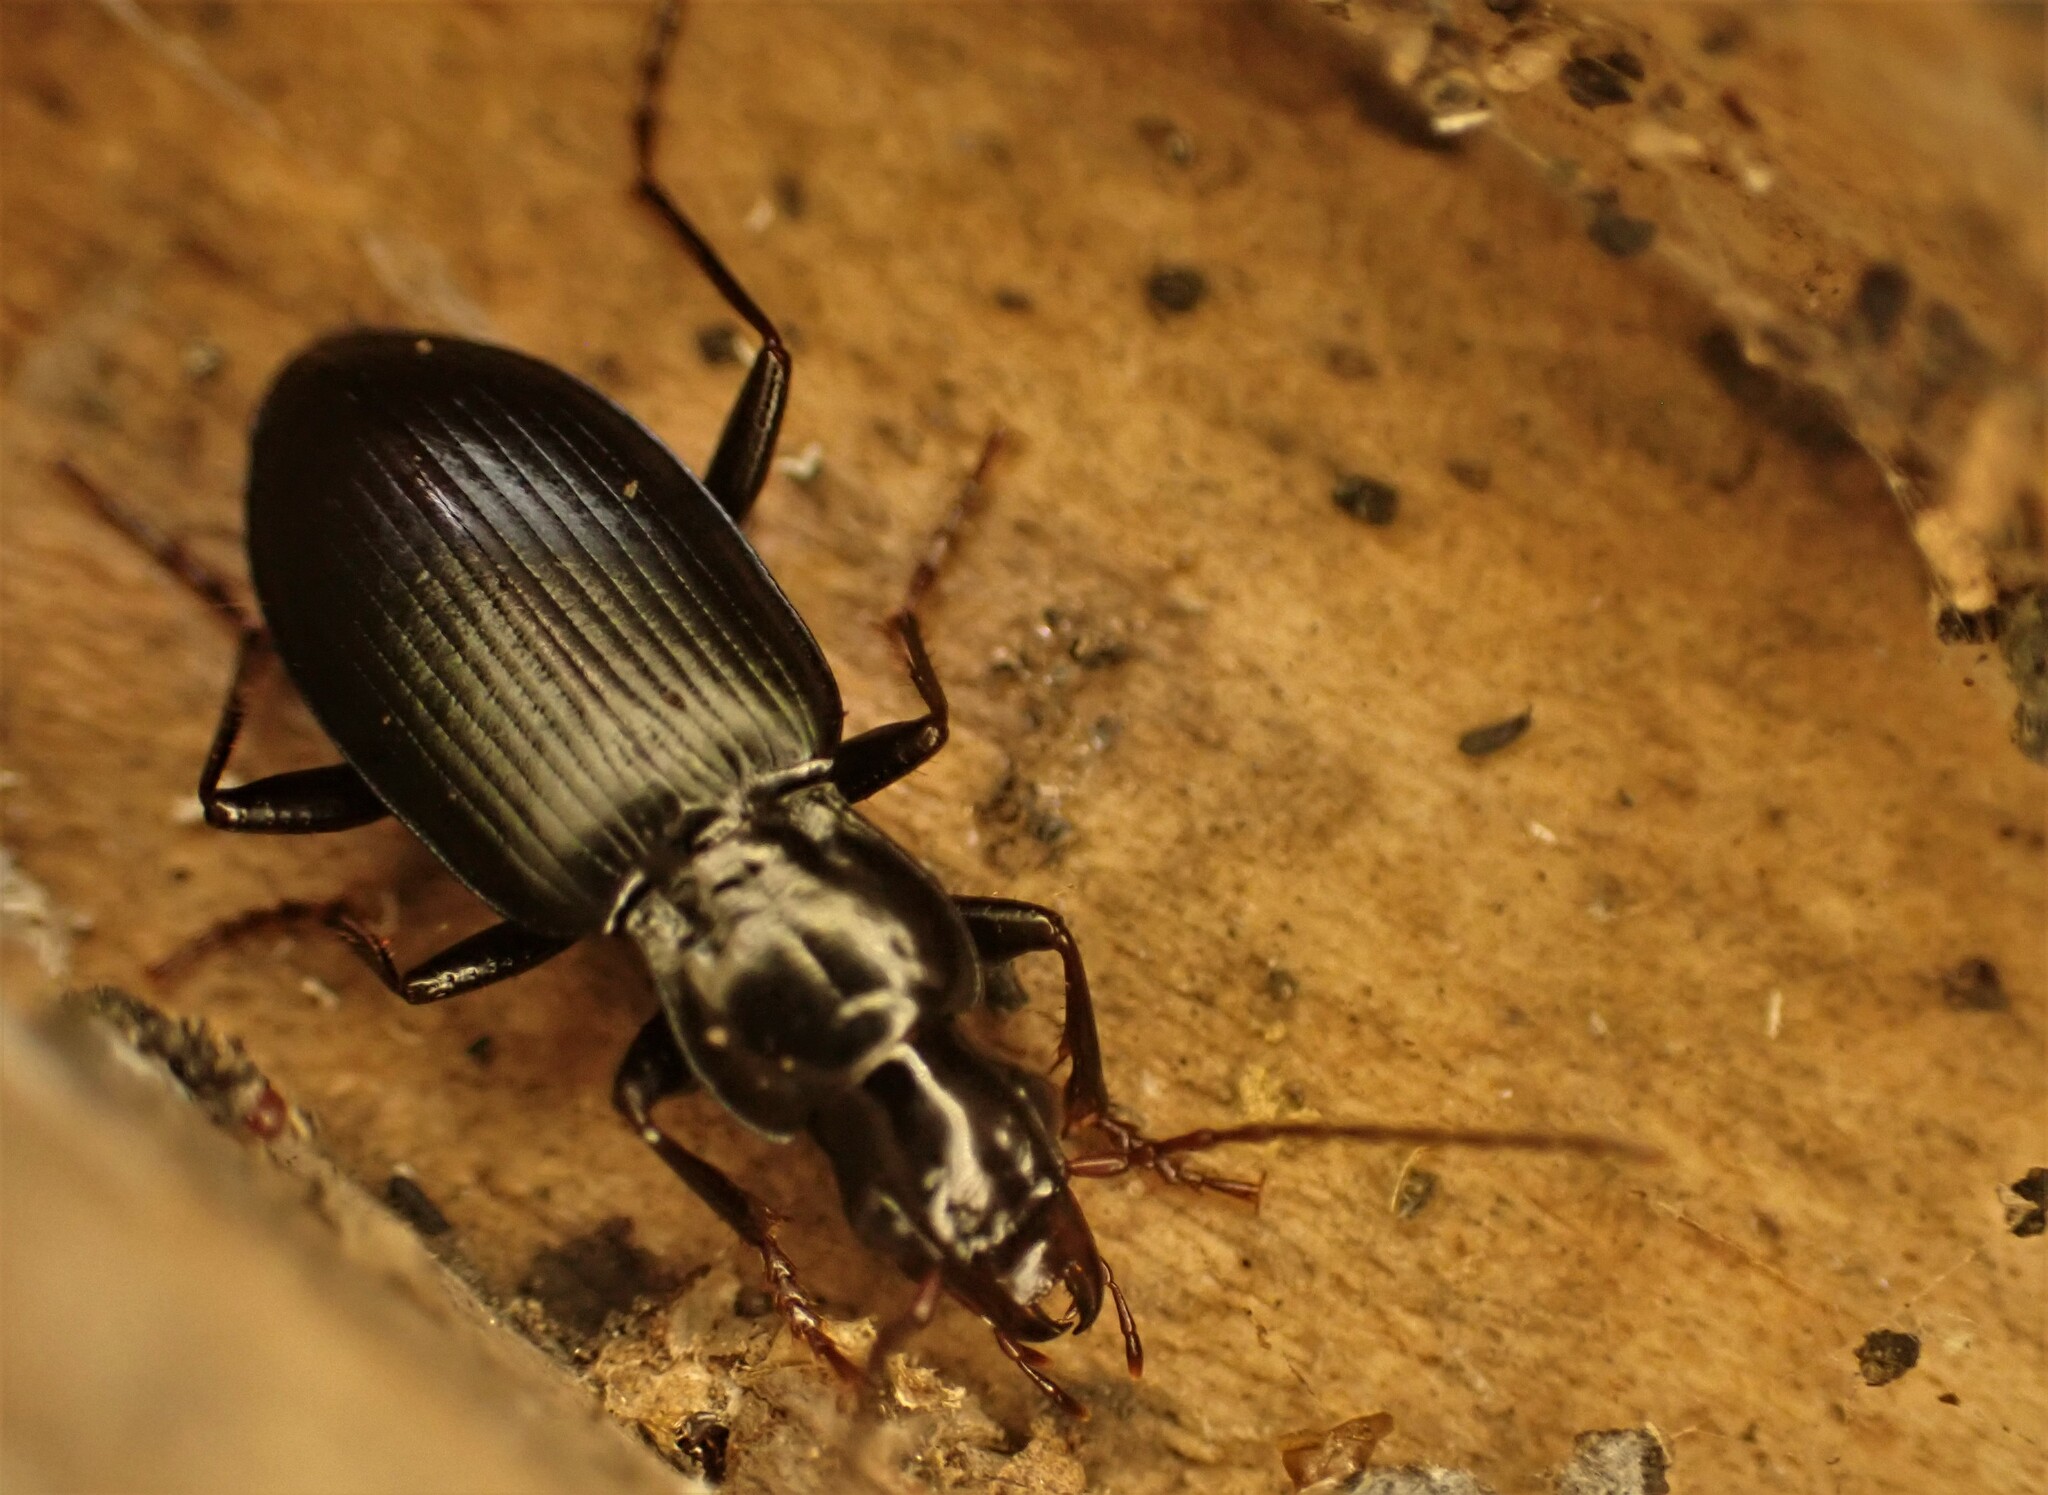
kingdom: Animalia
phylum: Arthropoda
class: Insecta
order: Coleoptera
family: Carabidae
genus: Laemostenus
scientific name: Laemostenus complanatus
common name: Cosmopolitan ground beetle
